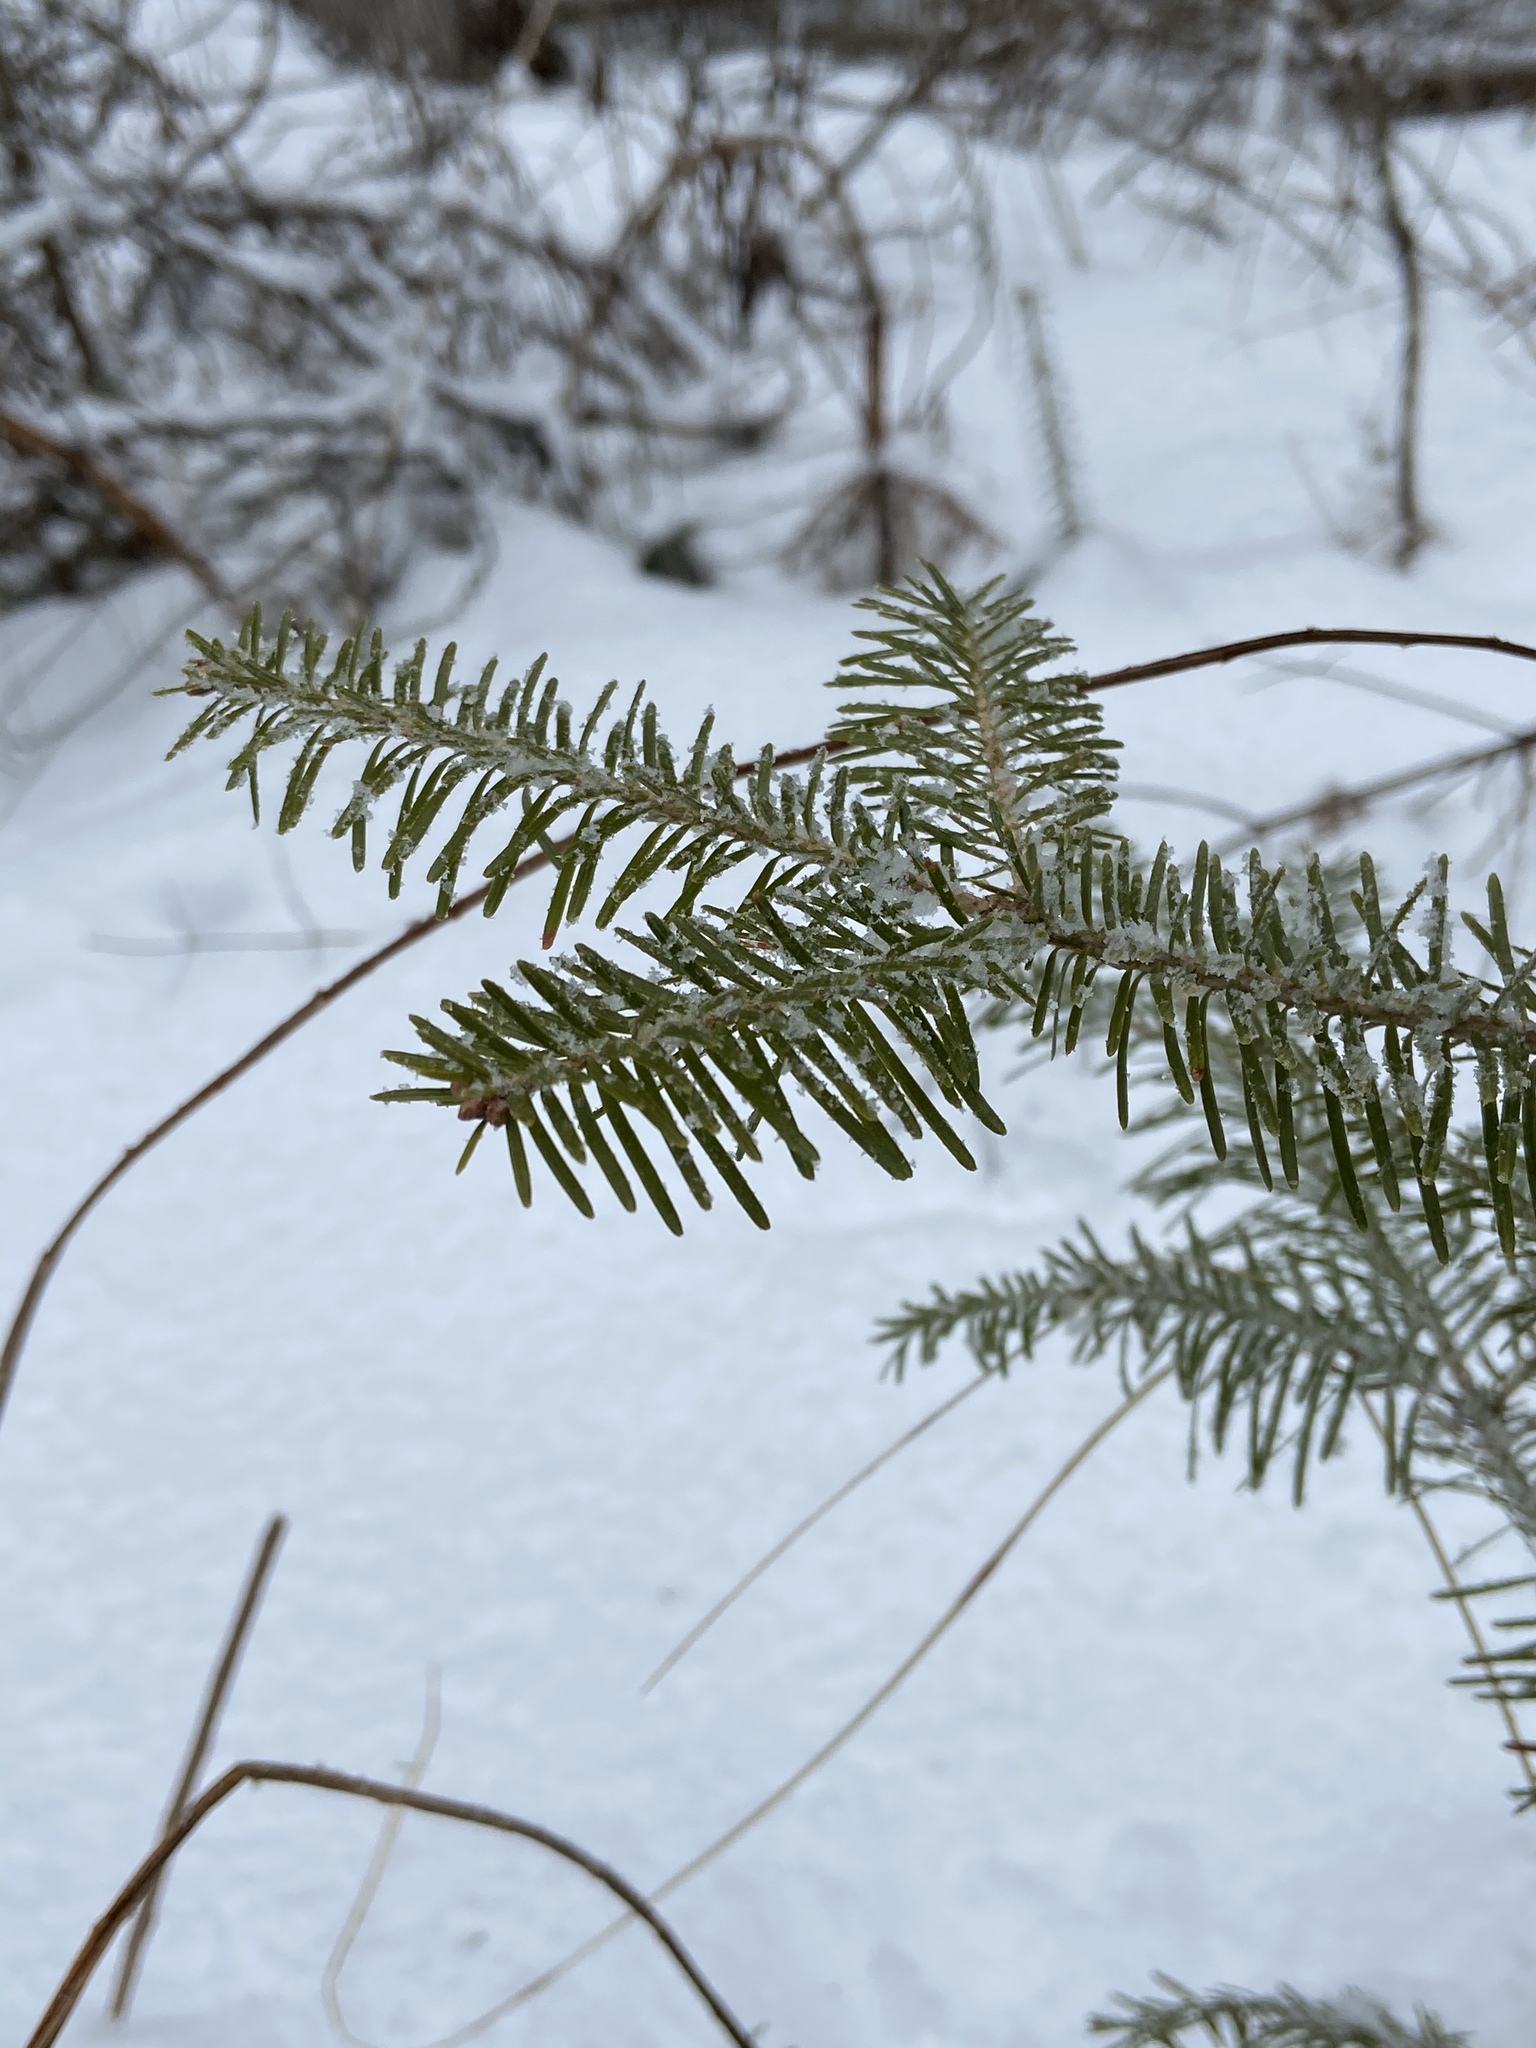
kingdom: Plantae
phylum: Tracheophyta
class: Pinopsida
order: Pinales
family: Pinaceae
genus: Abies
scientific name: Abies balsamea
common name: Balsam fir
